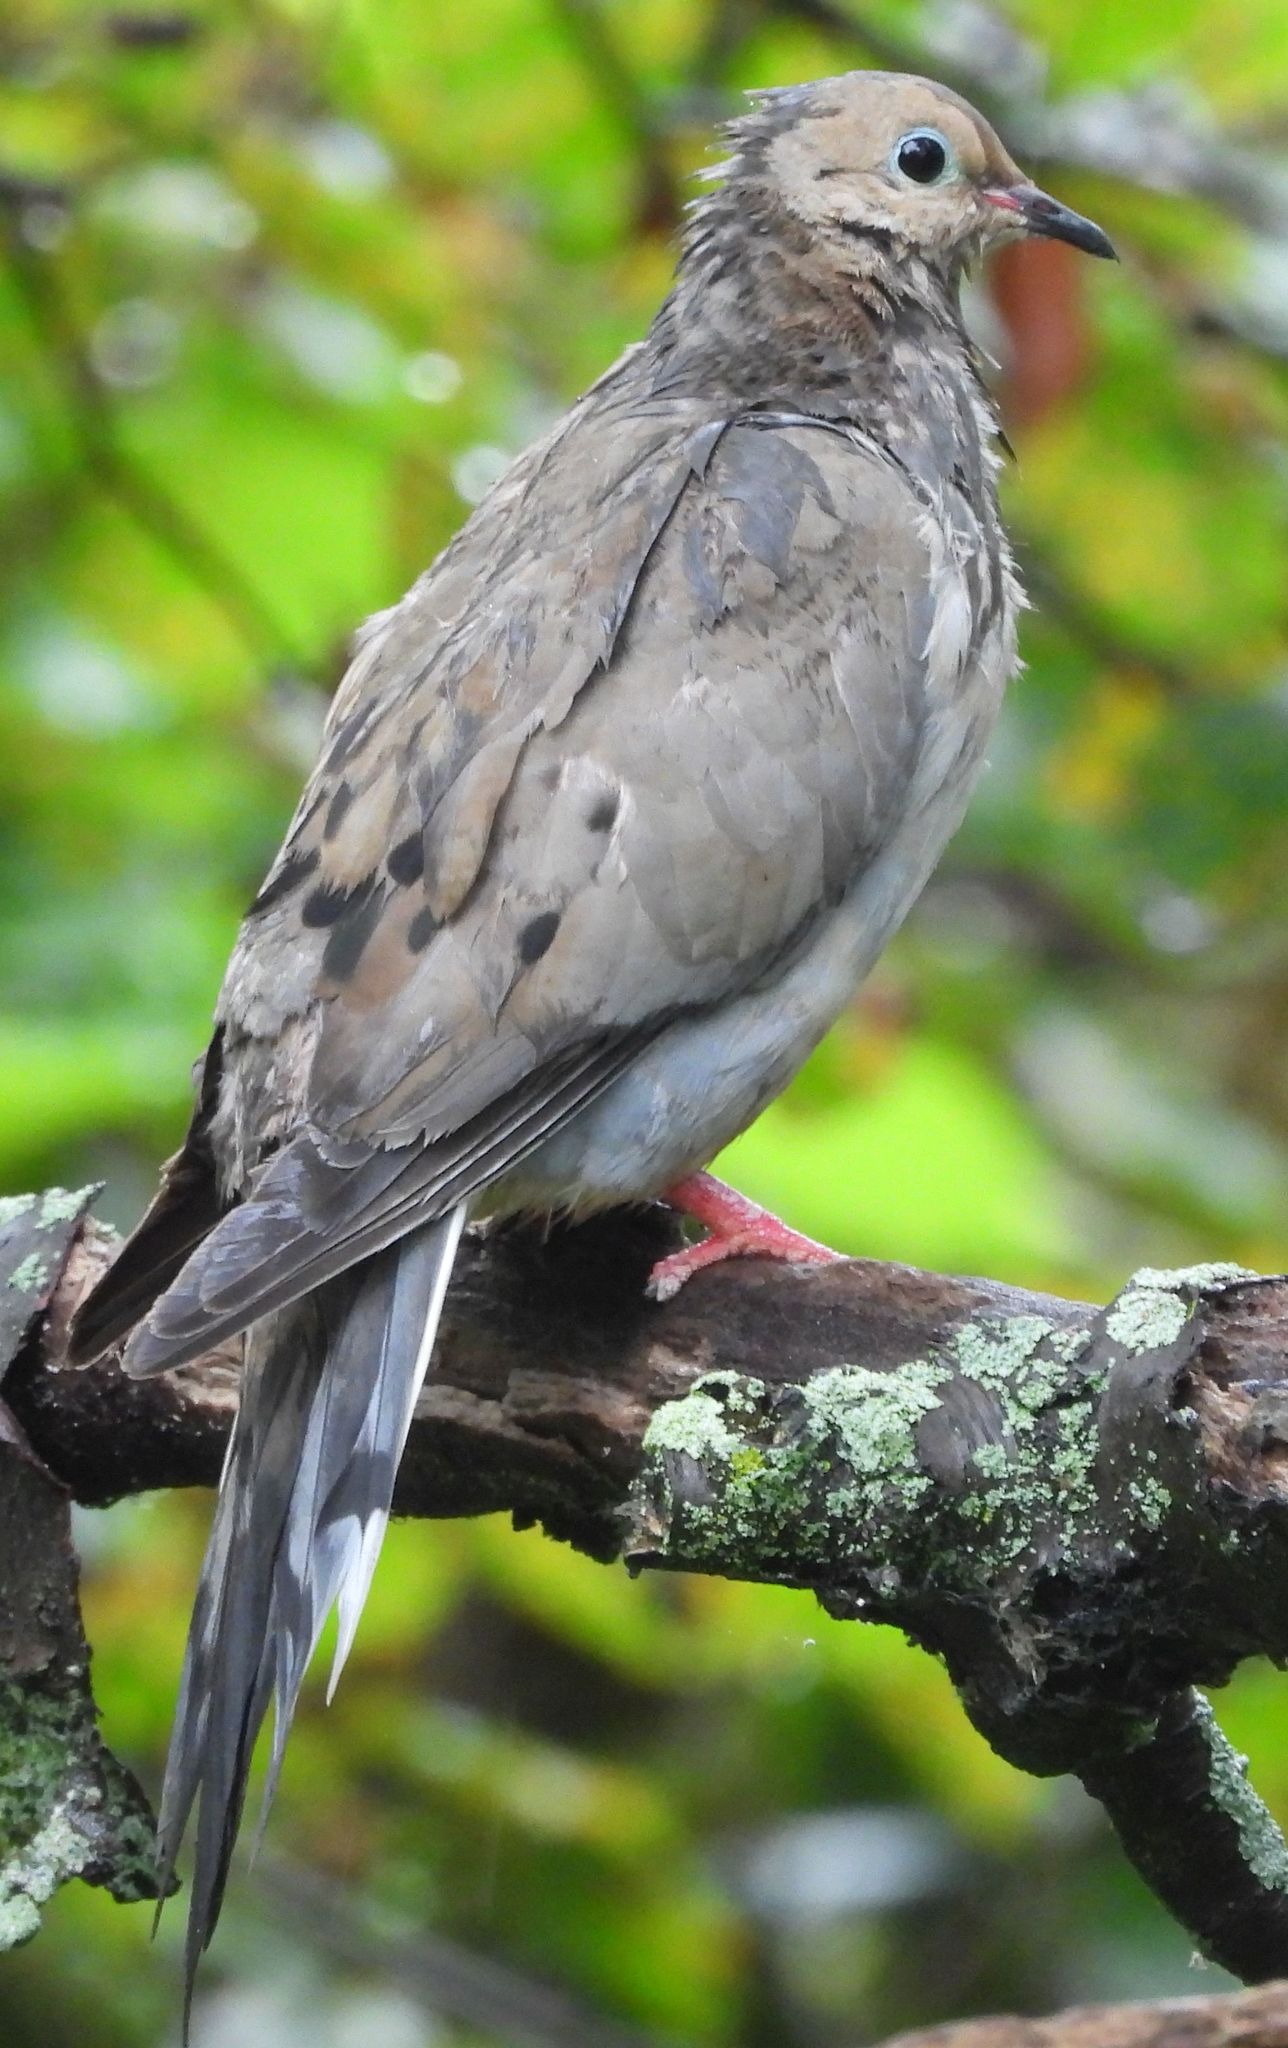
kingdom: Animalia
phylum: Chordata
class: Aves
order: Columbiformes
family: Columbidae
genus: Zenaida
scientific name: Zenaida macroura
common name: Mourning dove
